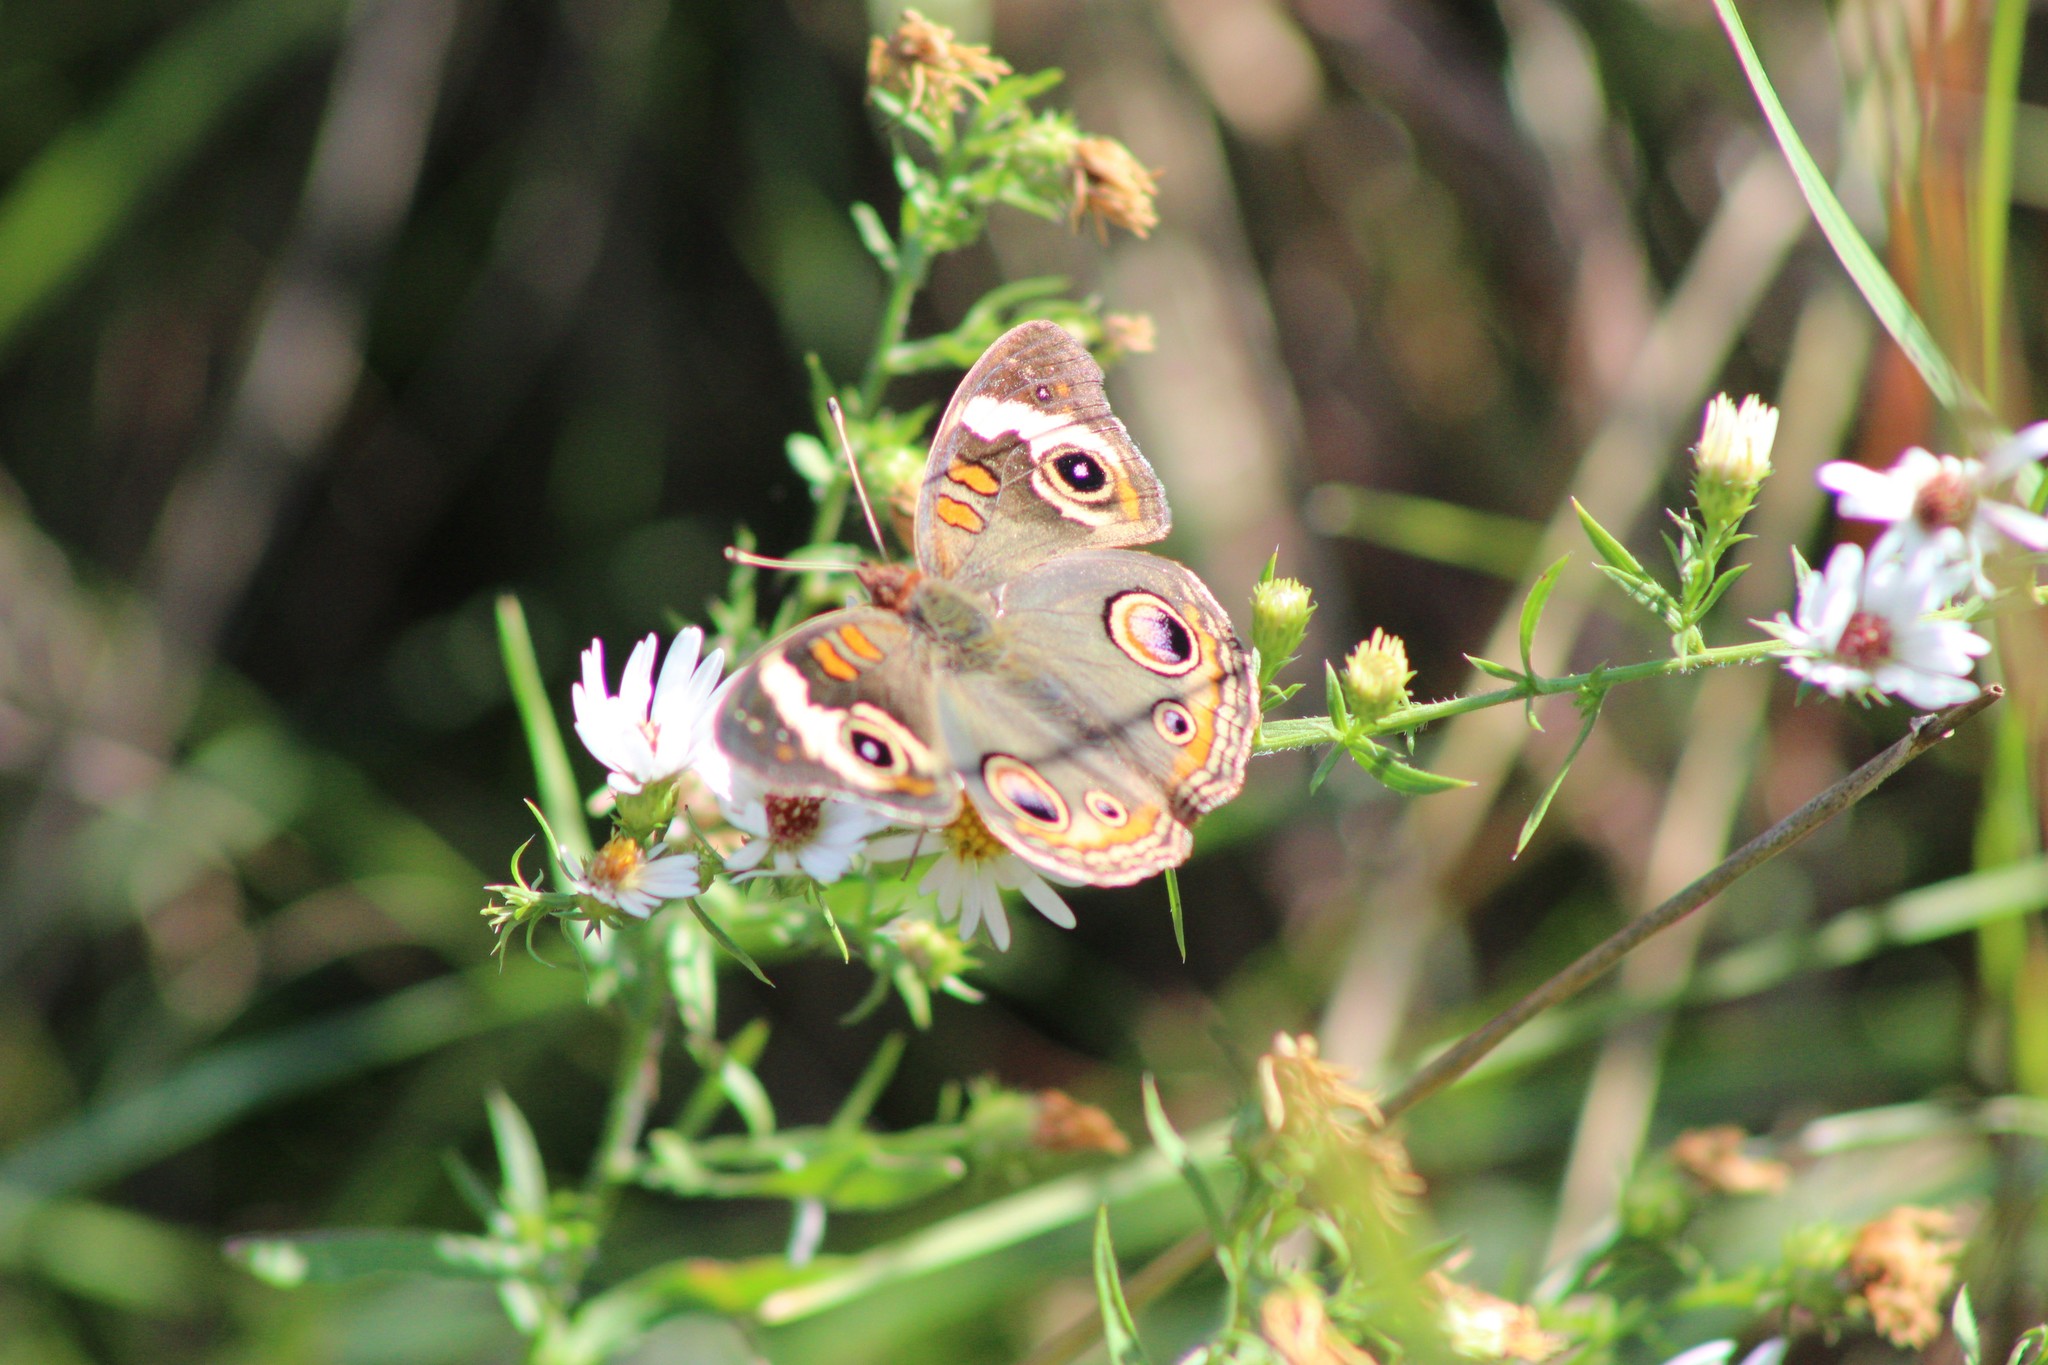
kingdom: Animalia
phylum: Arthropoda
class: Insecta
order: Lepidoptera
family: Nymphalidae
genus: Junonia
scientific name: Junonia coenia
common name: Common buckeye
